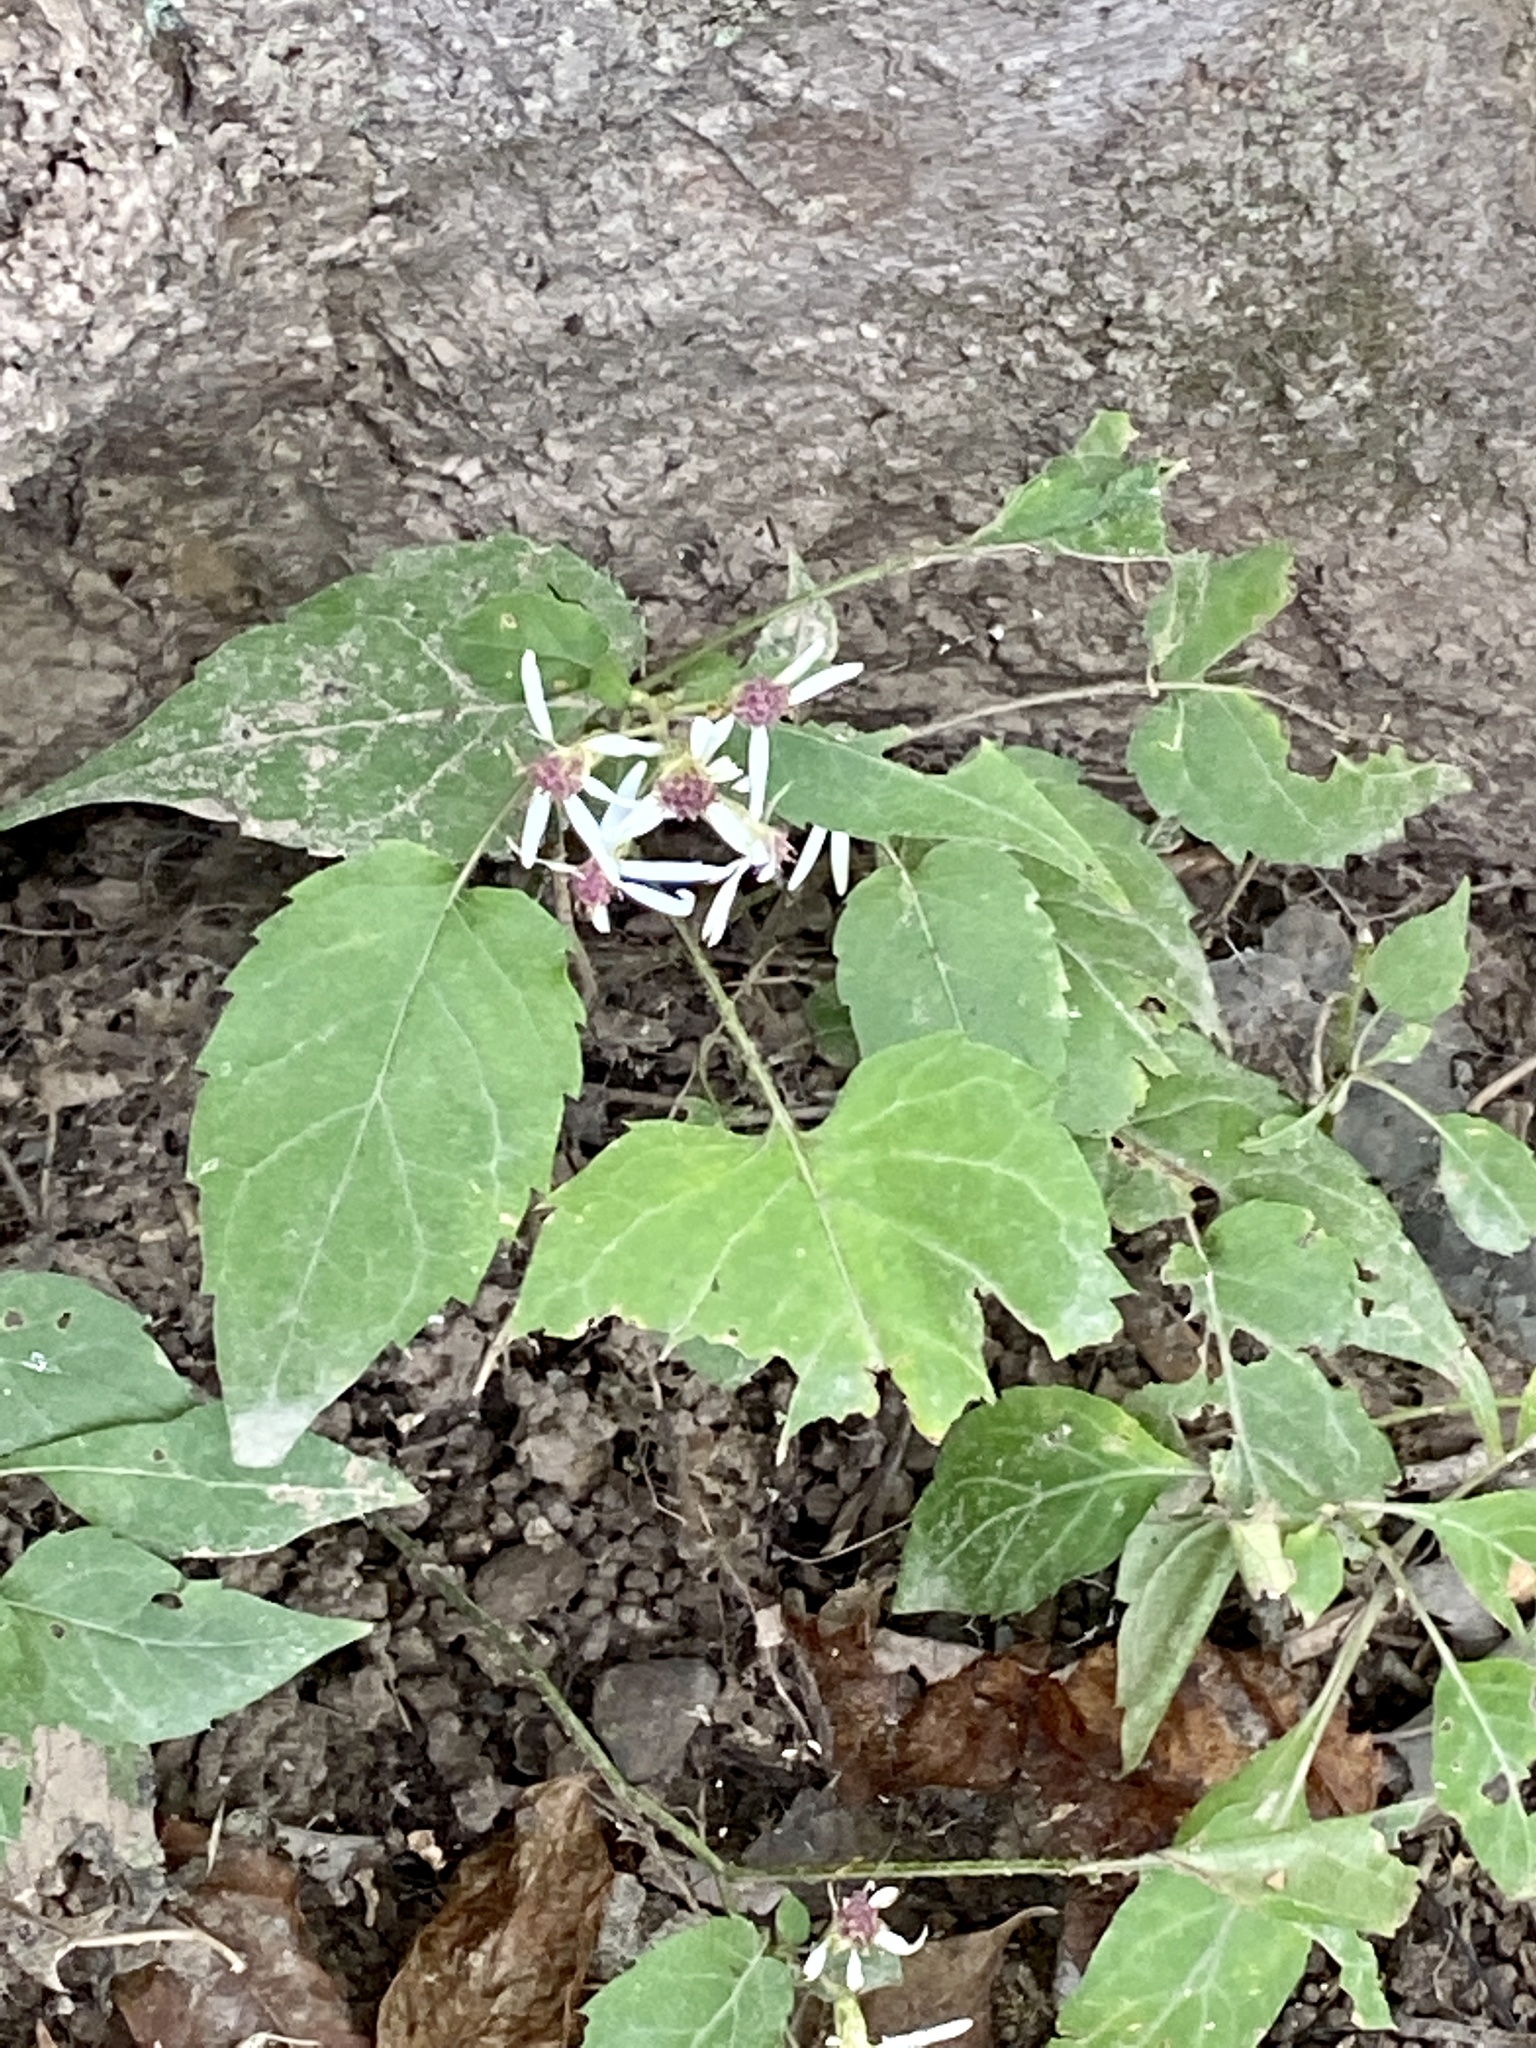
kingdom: Plantae
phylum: Tracheophyta
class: Magnoliopsida
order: Asterales
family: Asteraceae
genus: Eurybia
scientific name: Eurybia divaricata
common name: White wood aster
